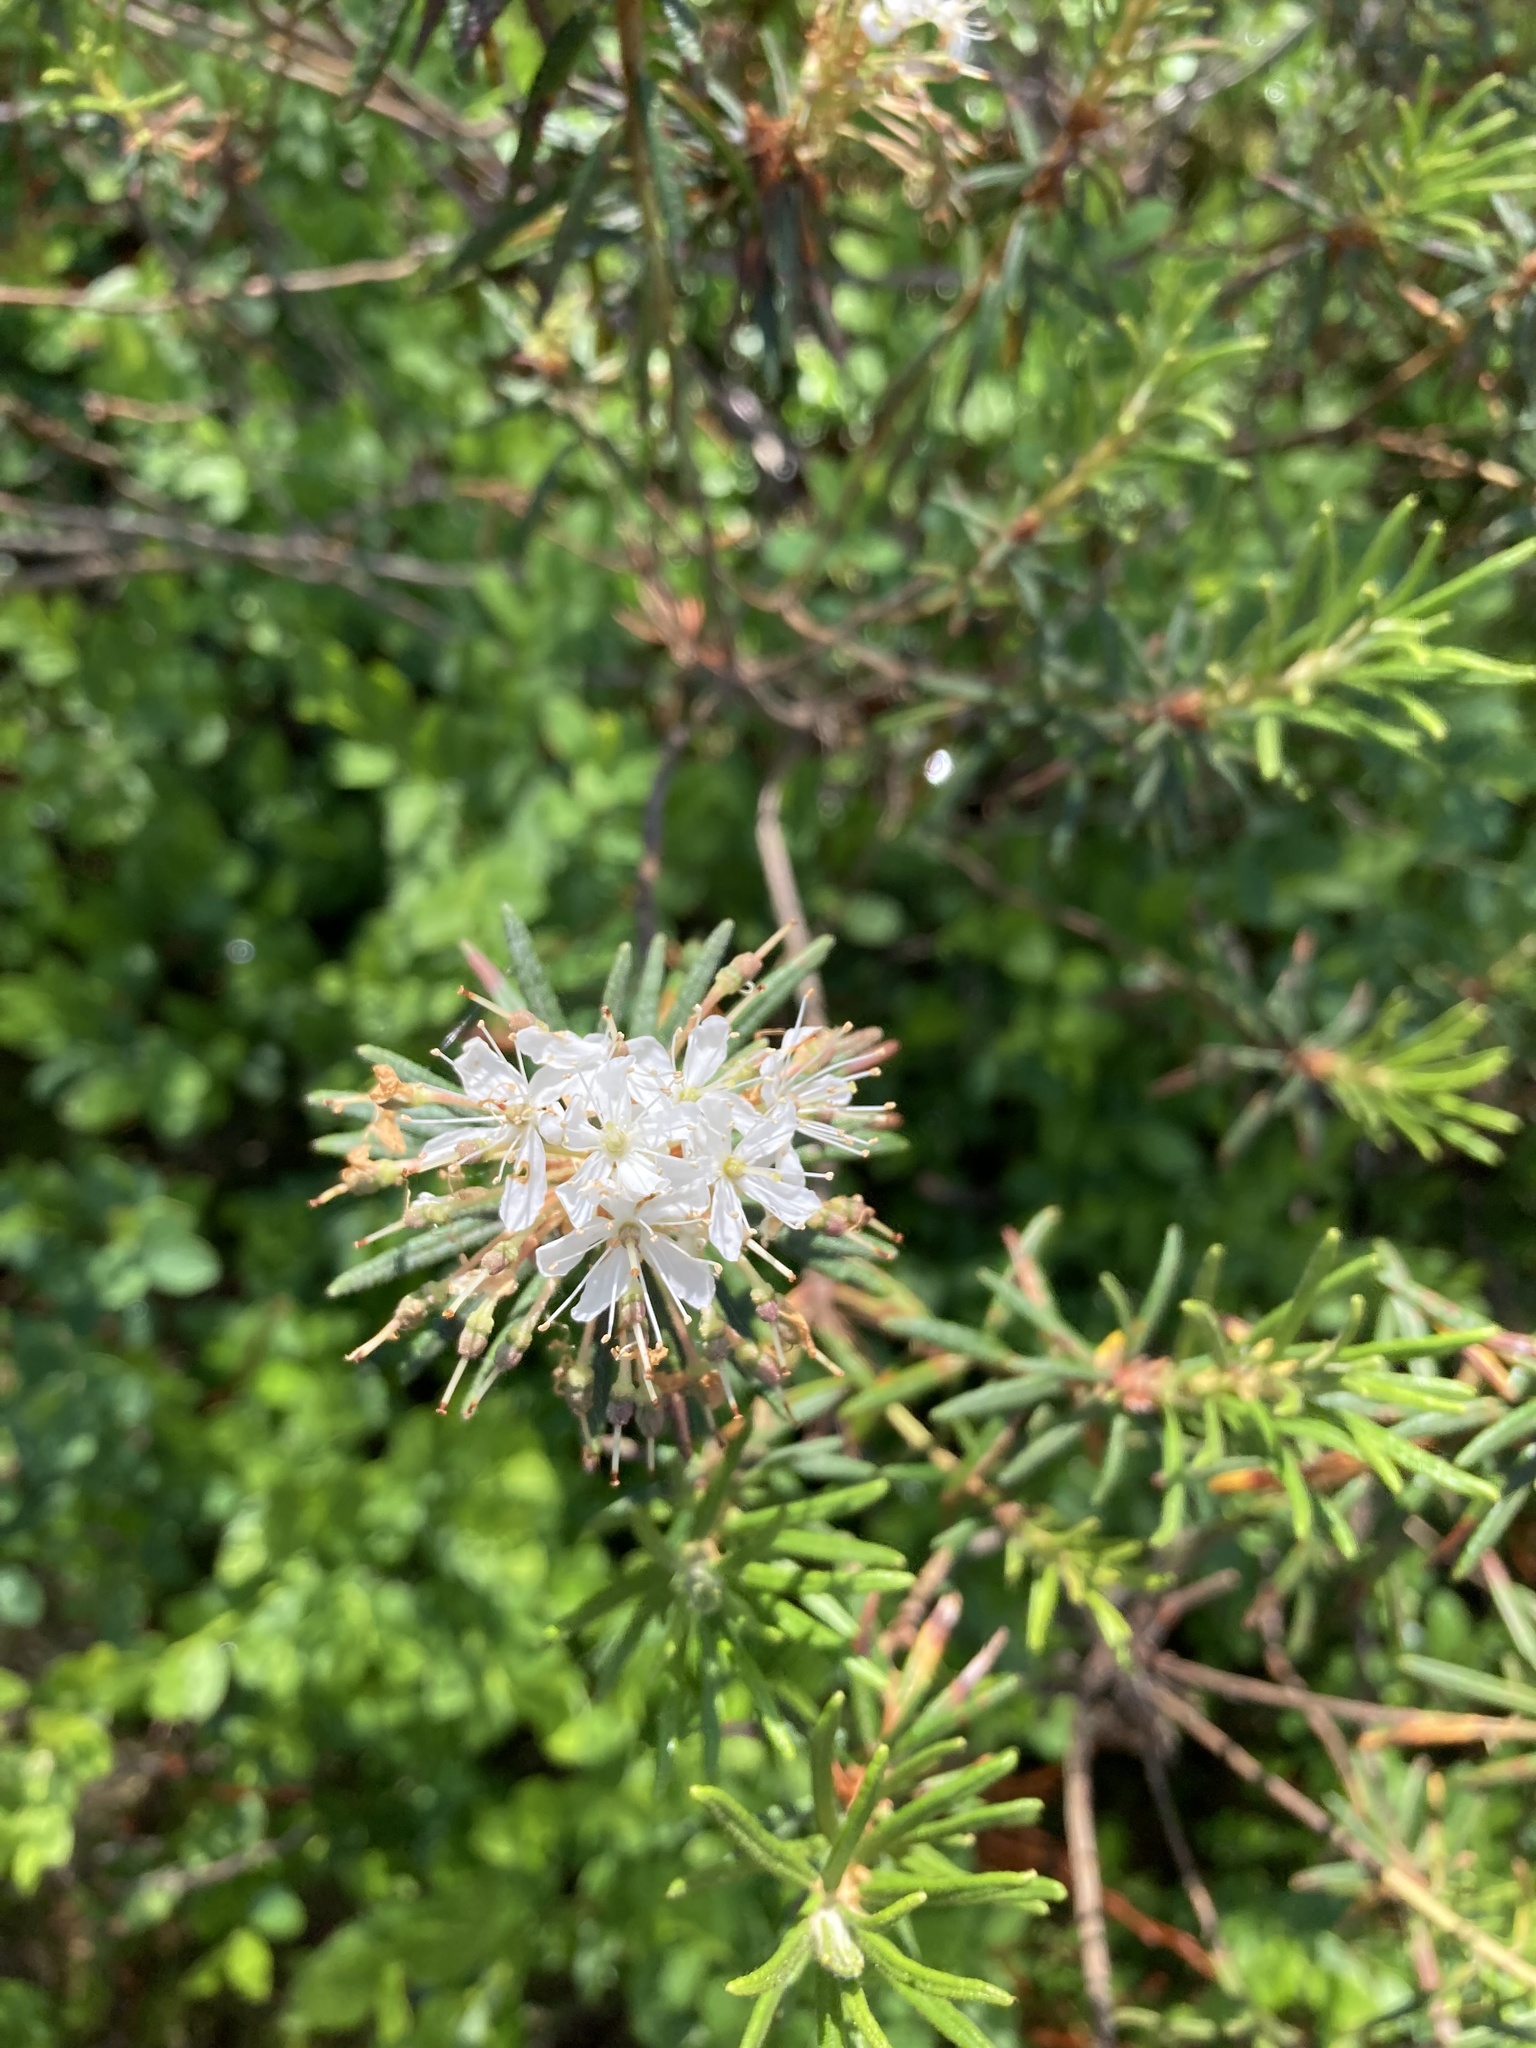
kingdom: Plantae
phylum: Tracheophyta
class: Magnoliopsida
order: Ericales
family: Ericaceae
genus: Rhododendron
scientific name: Rhododendron tomentosum
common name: Marsh labrador tea
